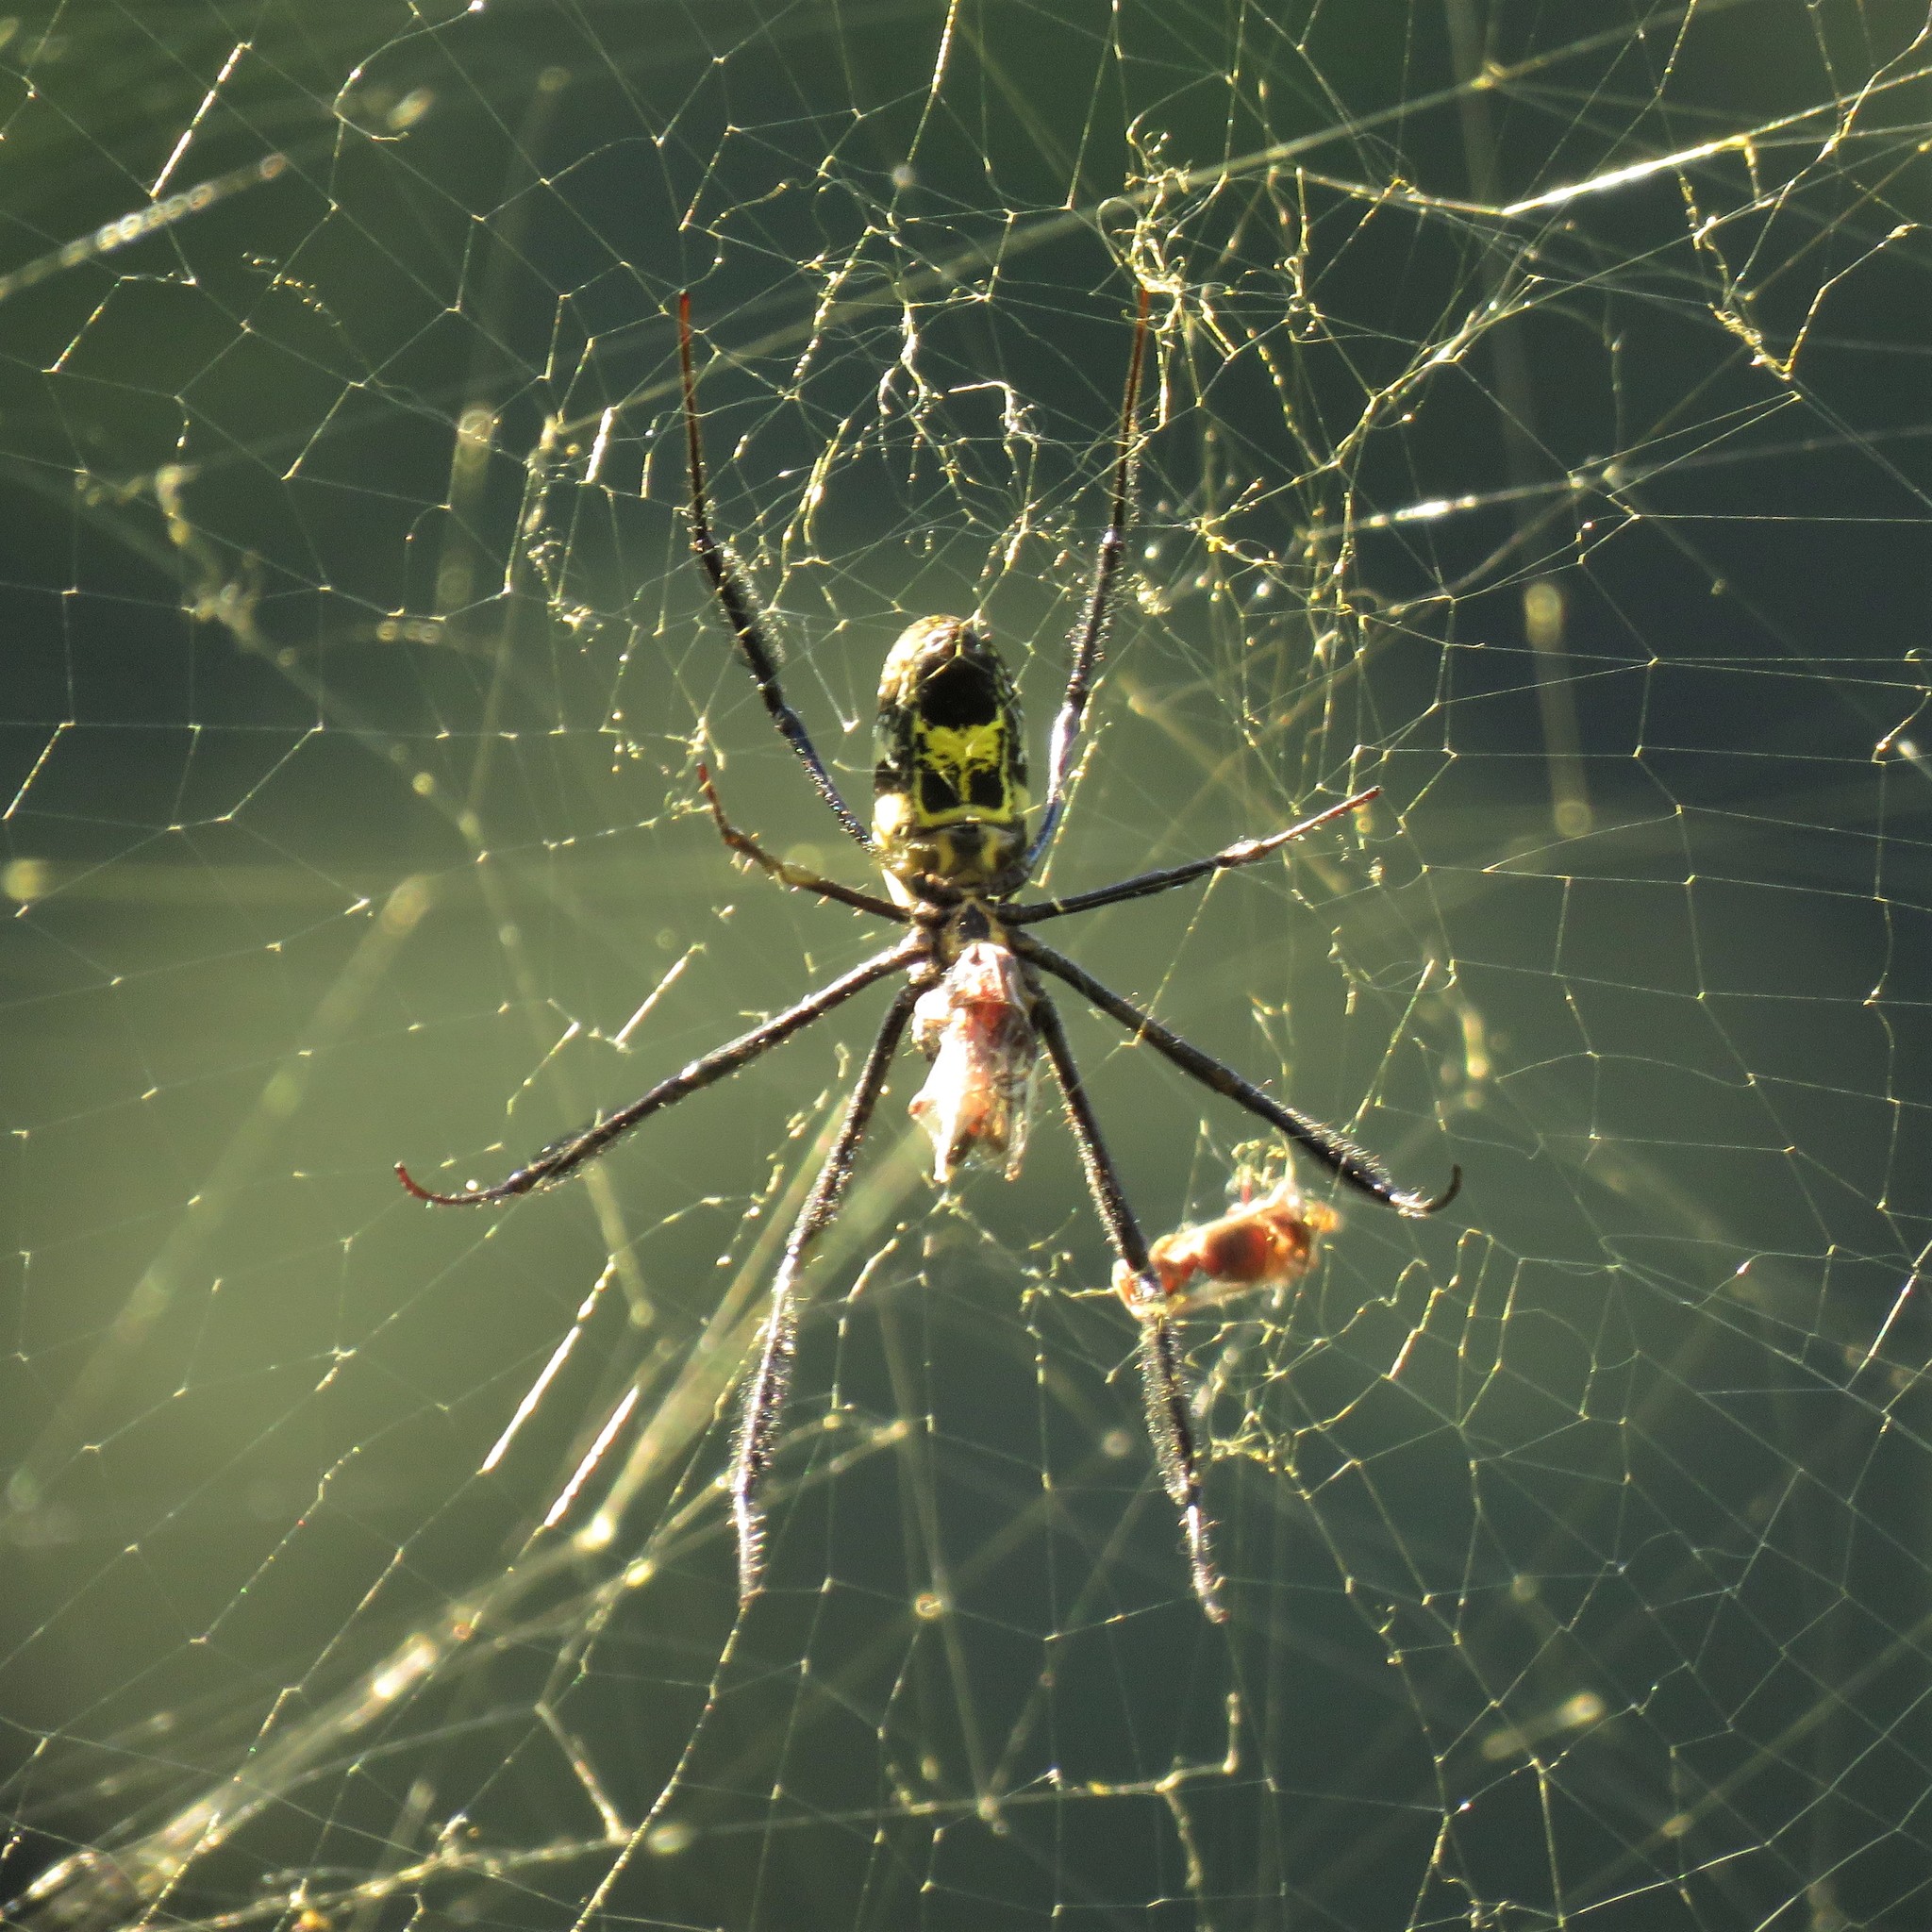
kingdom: Animalia
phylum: Arthropoda
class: Arachnida
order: Araneae
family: Araneidae
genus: Trichonephila
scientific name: Trichonephila fenestrata
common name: Hairy golden orb weaver
